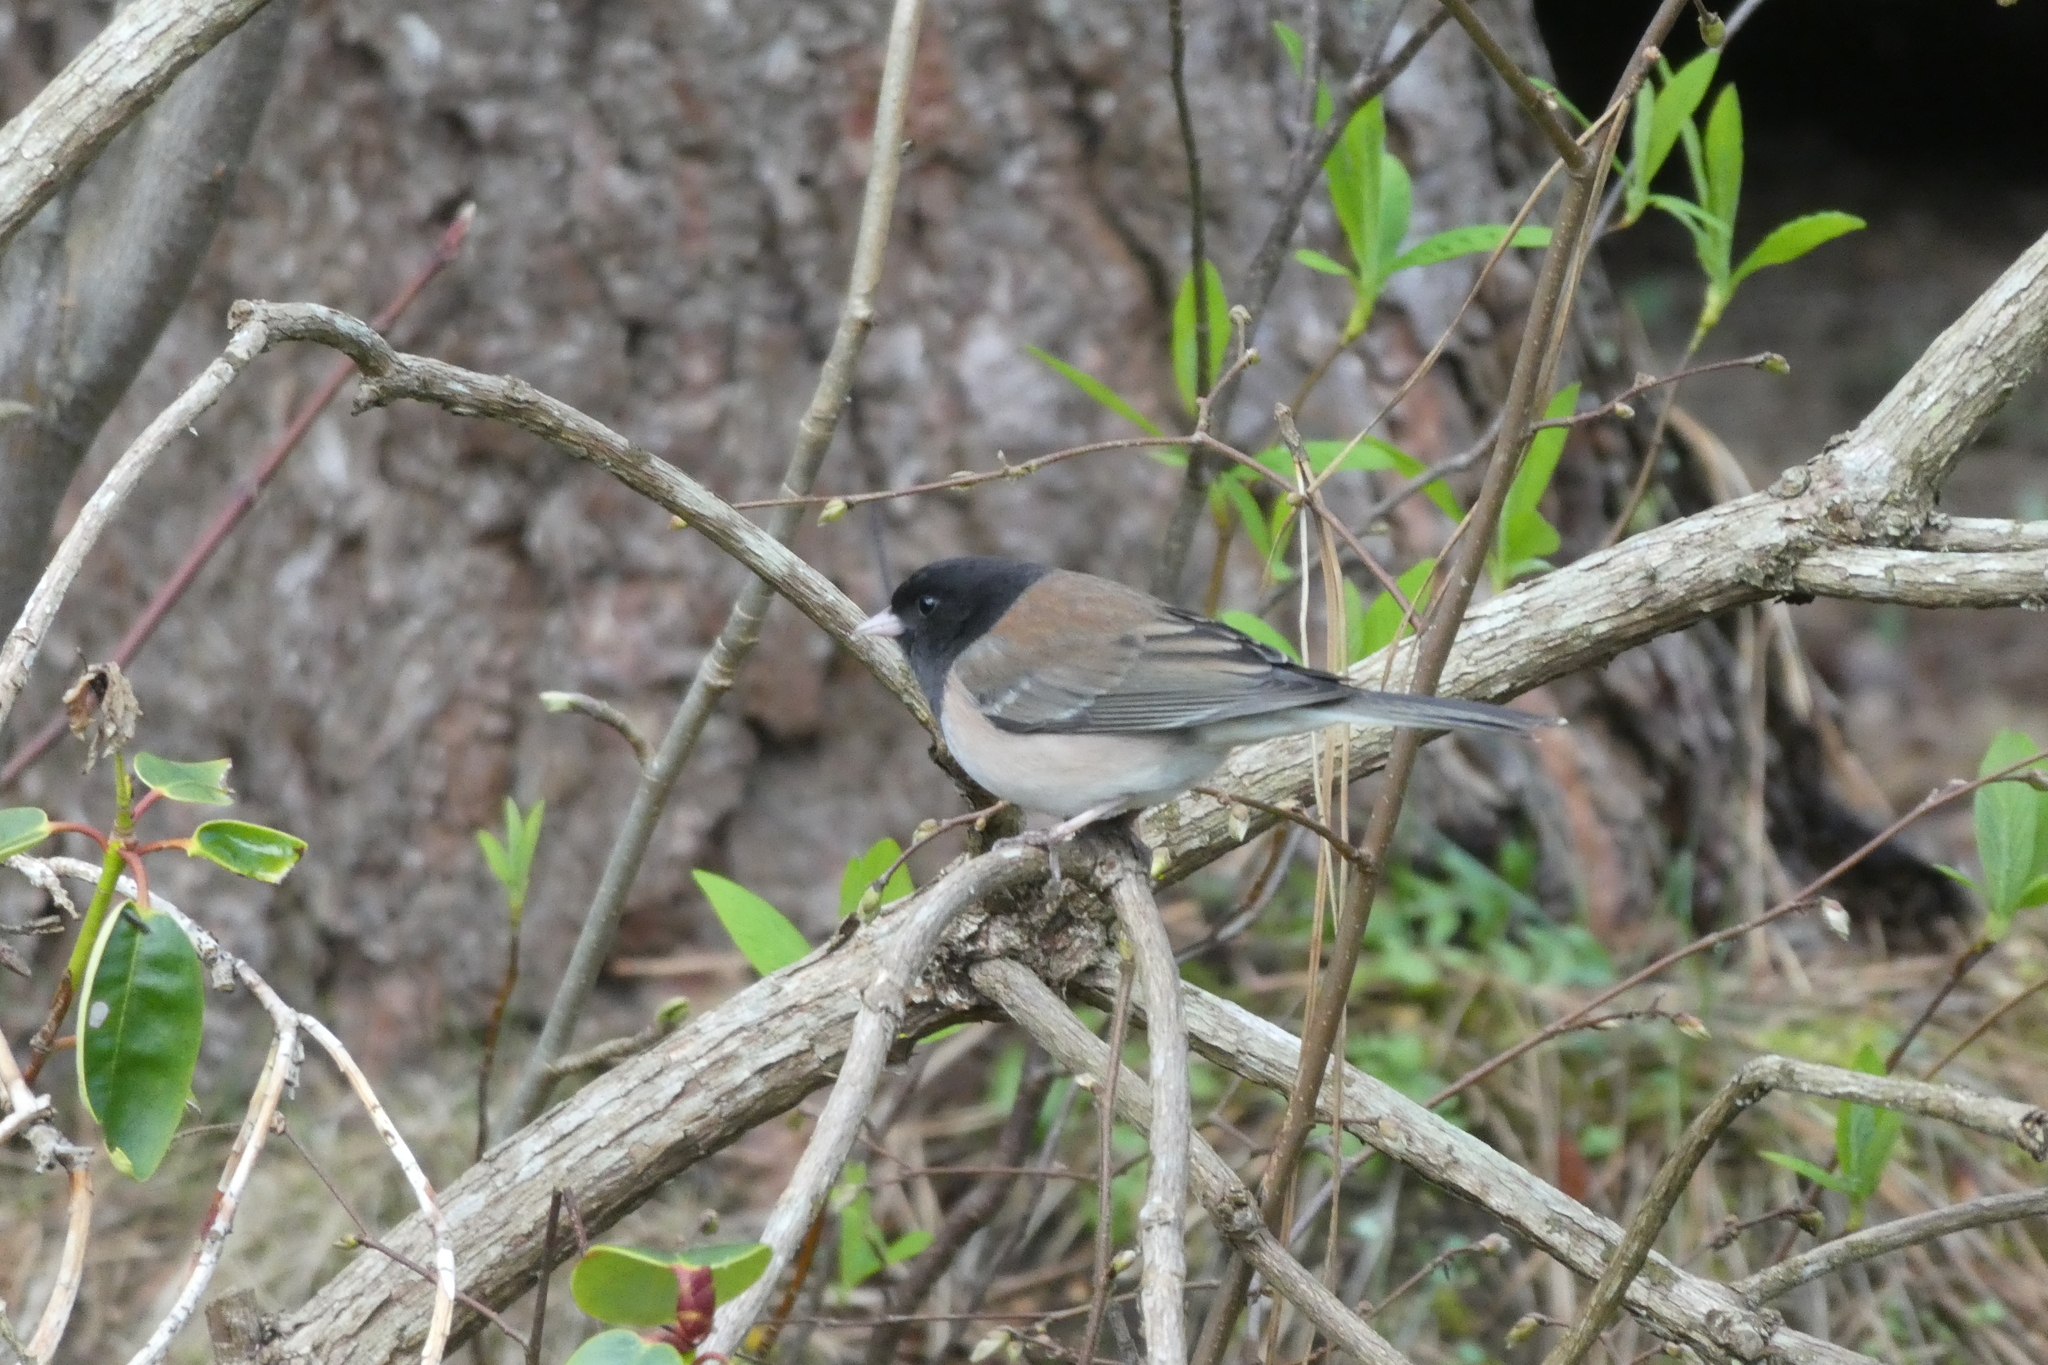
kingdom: Animalia
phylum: Chordata
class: Aves
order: Passeriformes
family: Passerellidae
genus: Junco
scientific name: Junco hyemalis
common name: Dark-eyed junco
